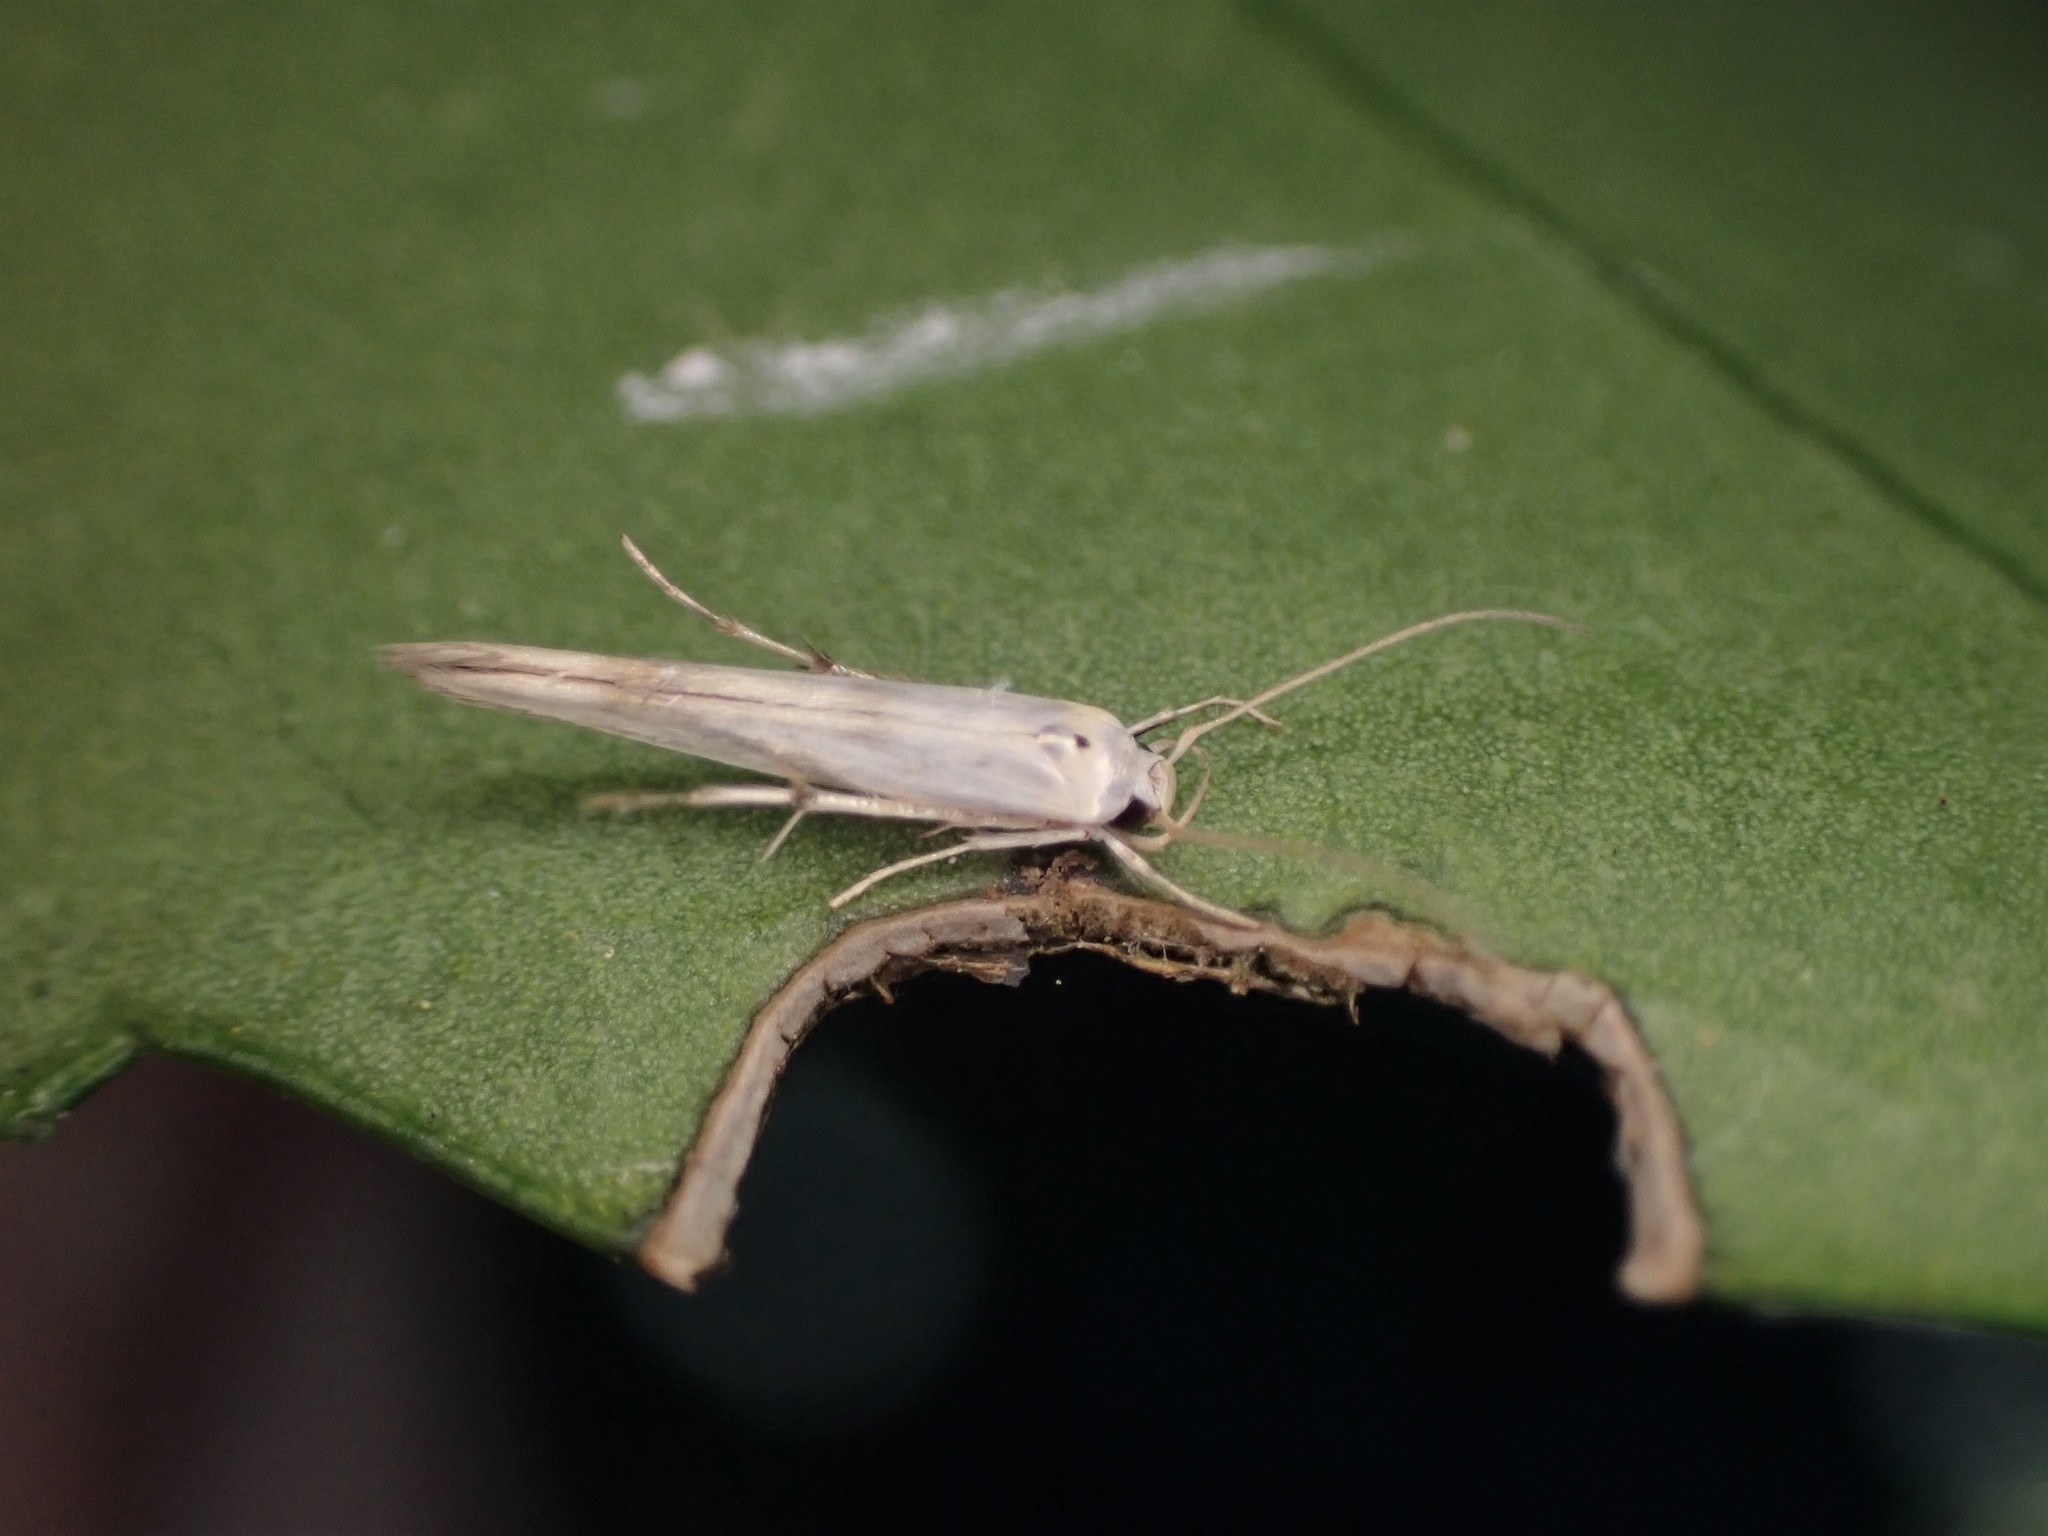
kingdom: Animalia
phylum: Arthropoda
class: Insecta
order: Lepidoptera
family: Stathmopodidae
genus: Stathmopoda
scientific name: Stathmopoda horticola
